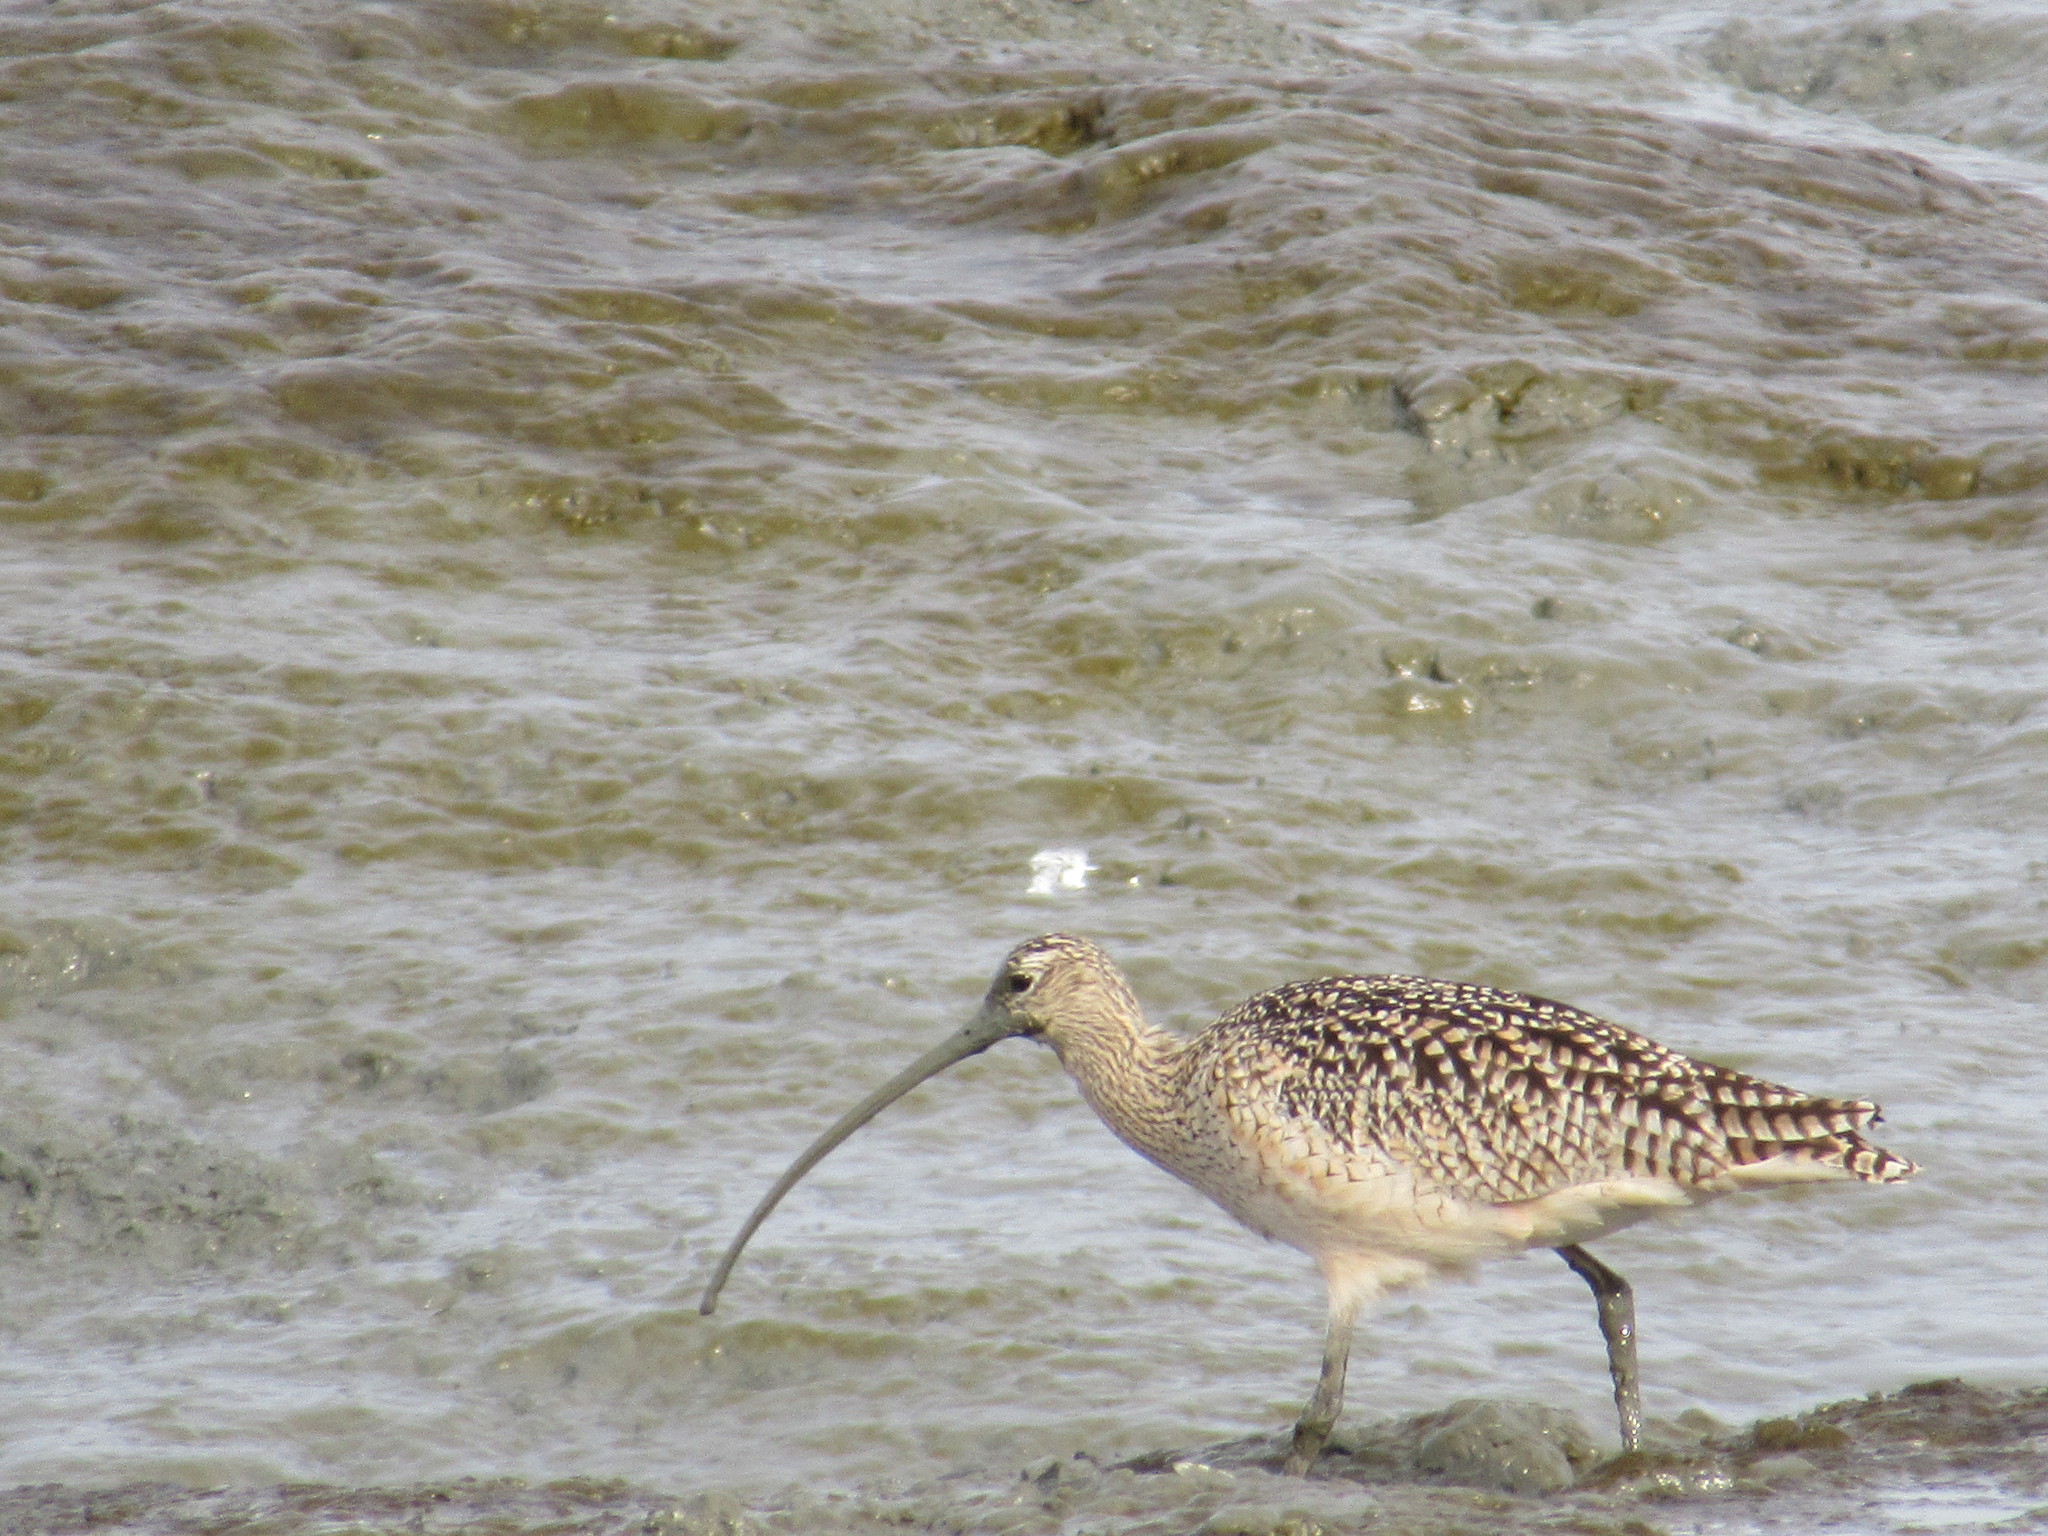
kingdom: Animalia
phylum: Chordata
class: Aves
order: Charadriiformes
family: Scolopacidae
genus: Numenius
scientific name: Numenius americanus
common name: Long-billed curlew
